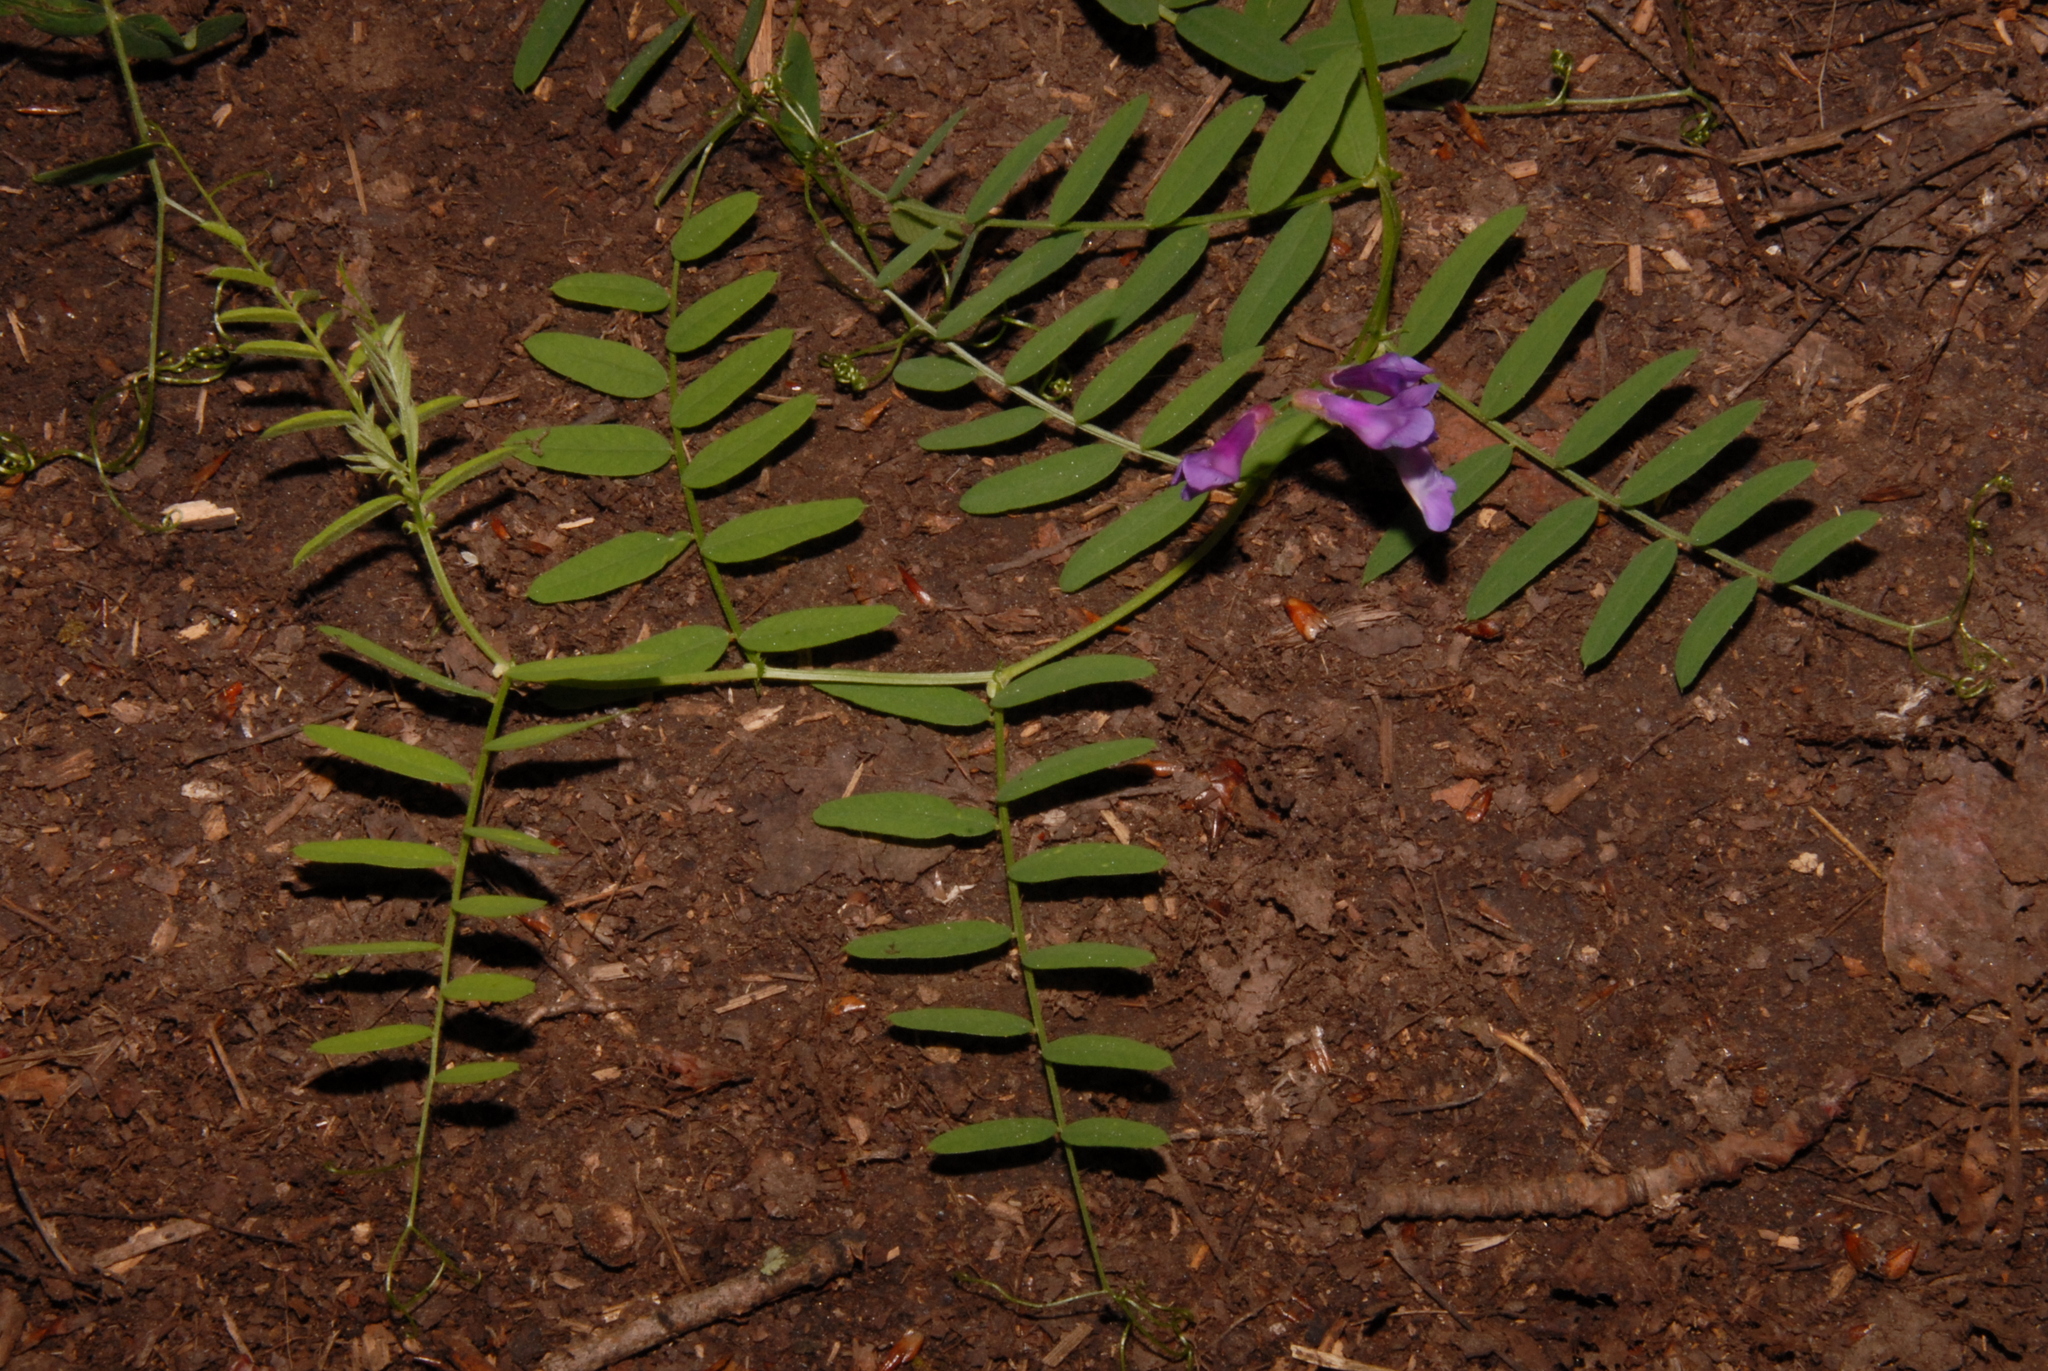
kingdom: Plantae
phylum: Tracheophyta
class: Magnoliopsida
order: Fabales
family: Fabaceae
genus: Vicia
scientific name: Vicia americana
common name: American vetch
